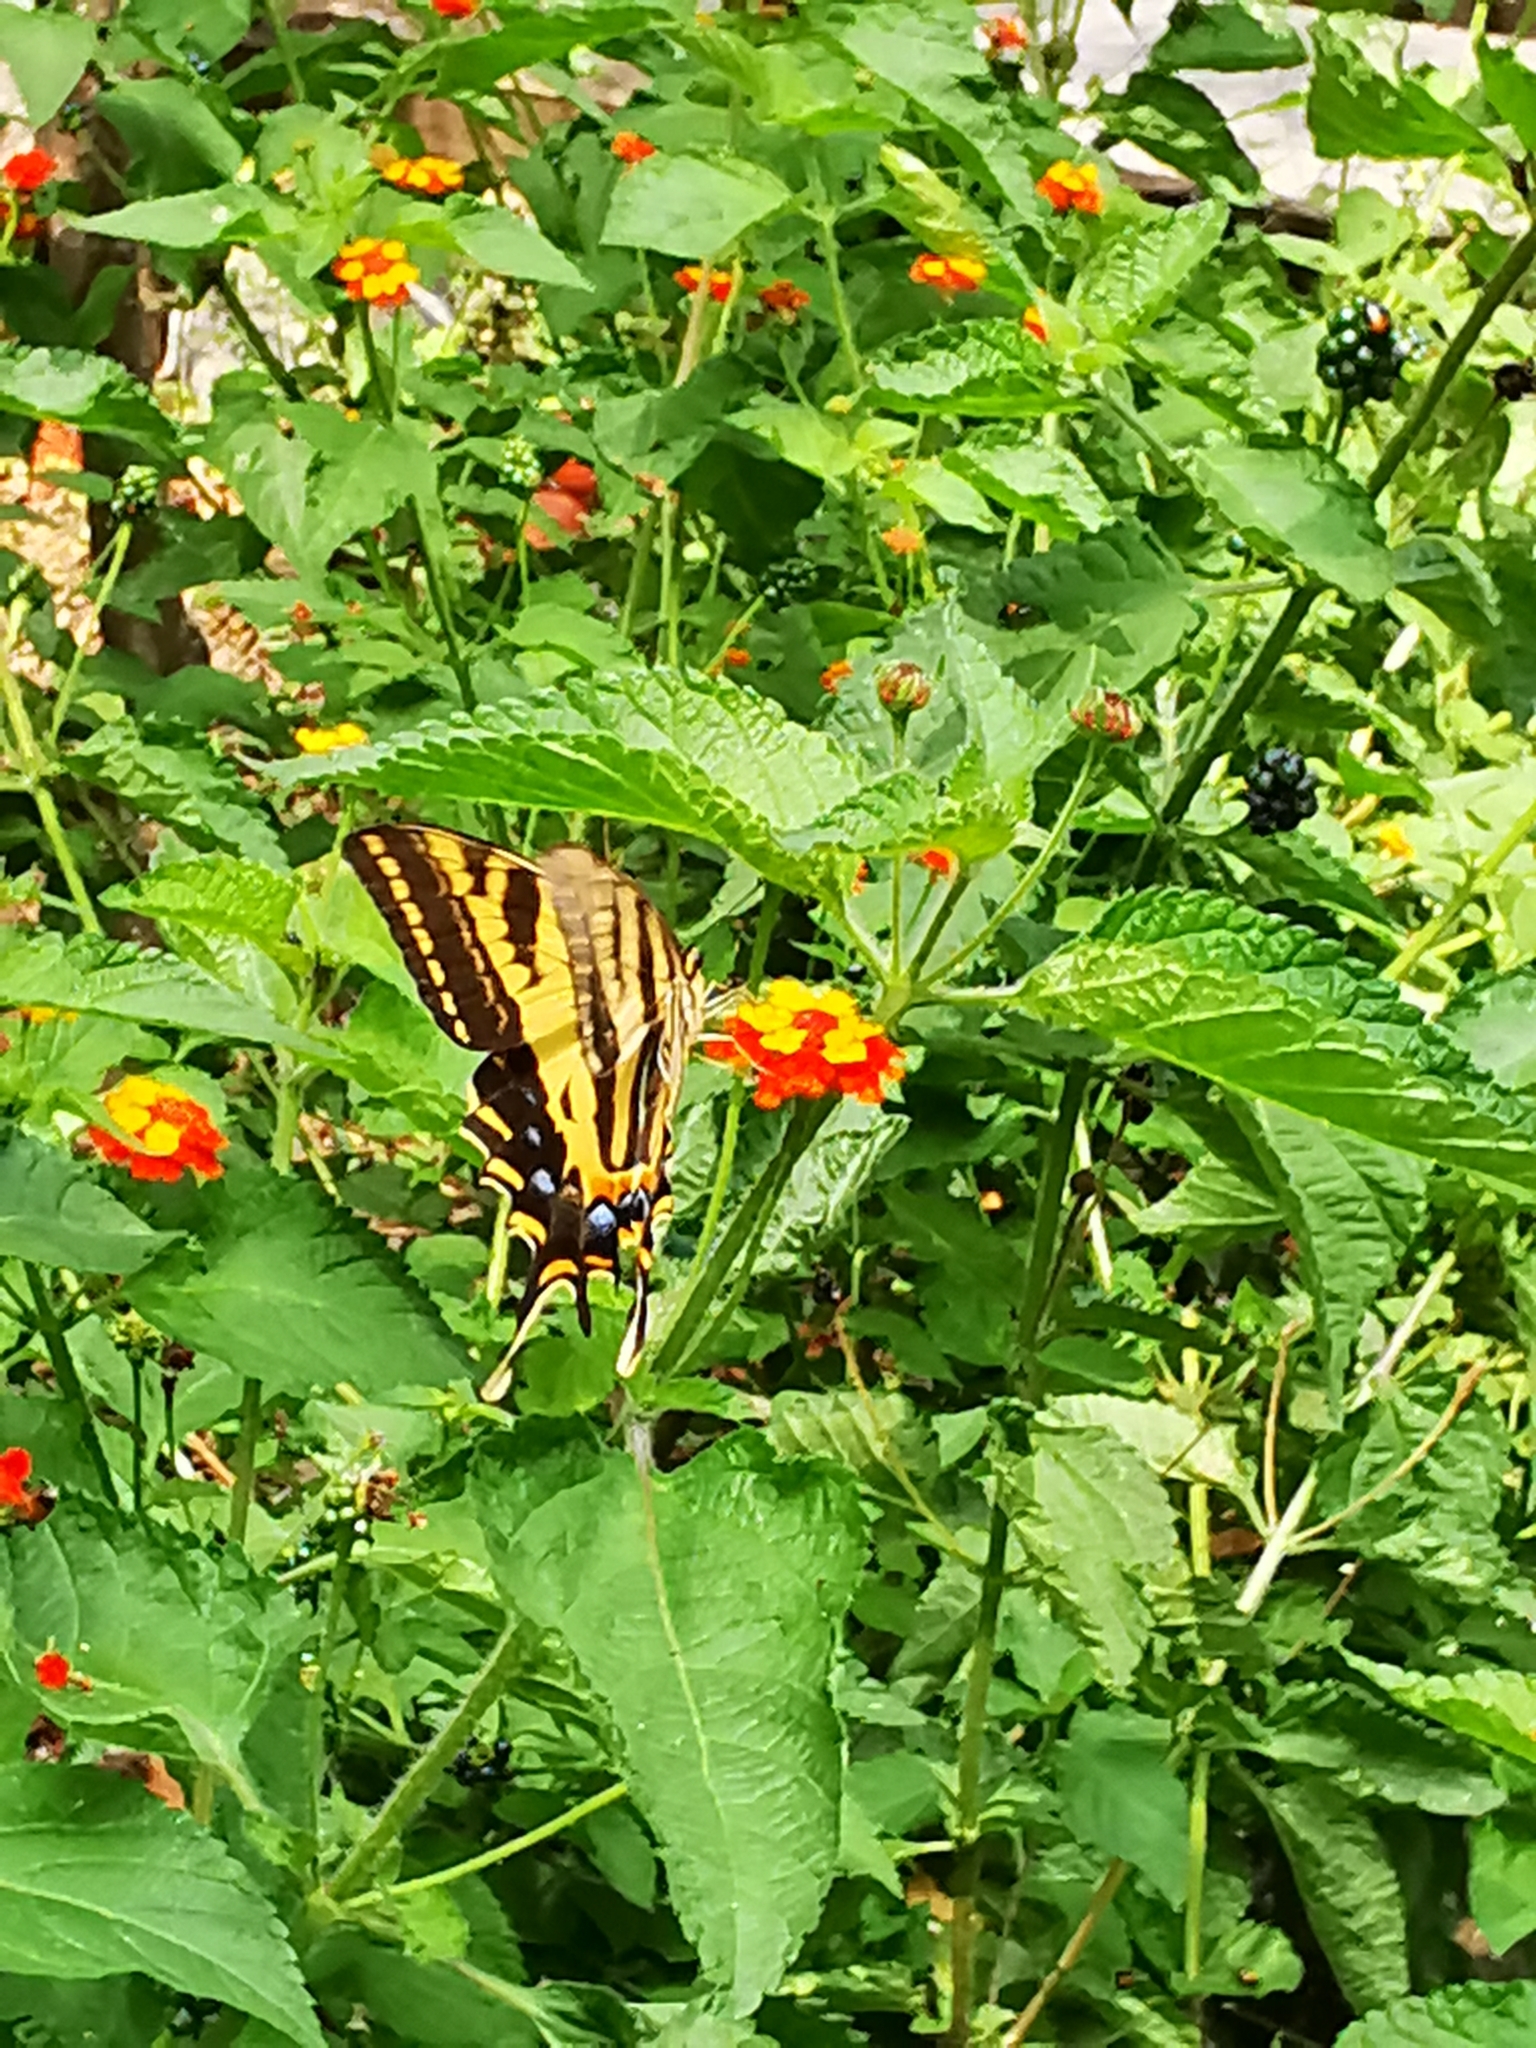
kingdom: Animalia
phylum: Arthropoda
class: Insecta
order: Lepidoptera
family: Papilionidae
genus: Papilio
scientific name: Papilio pilumnus
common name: Three-tailed tiger swallowtail
